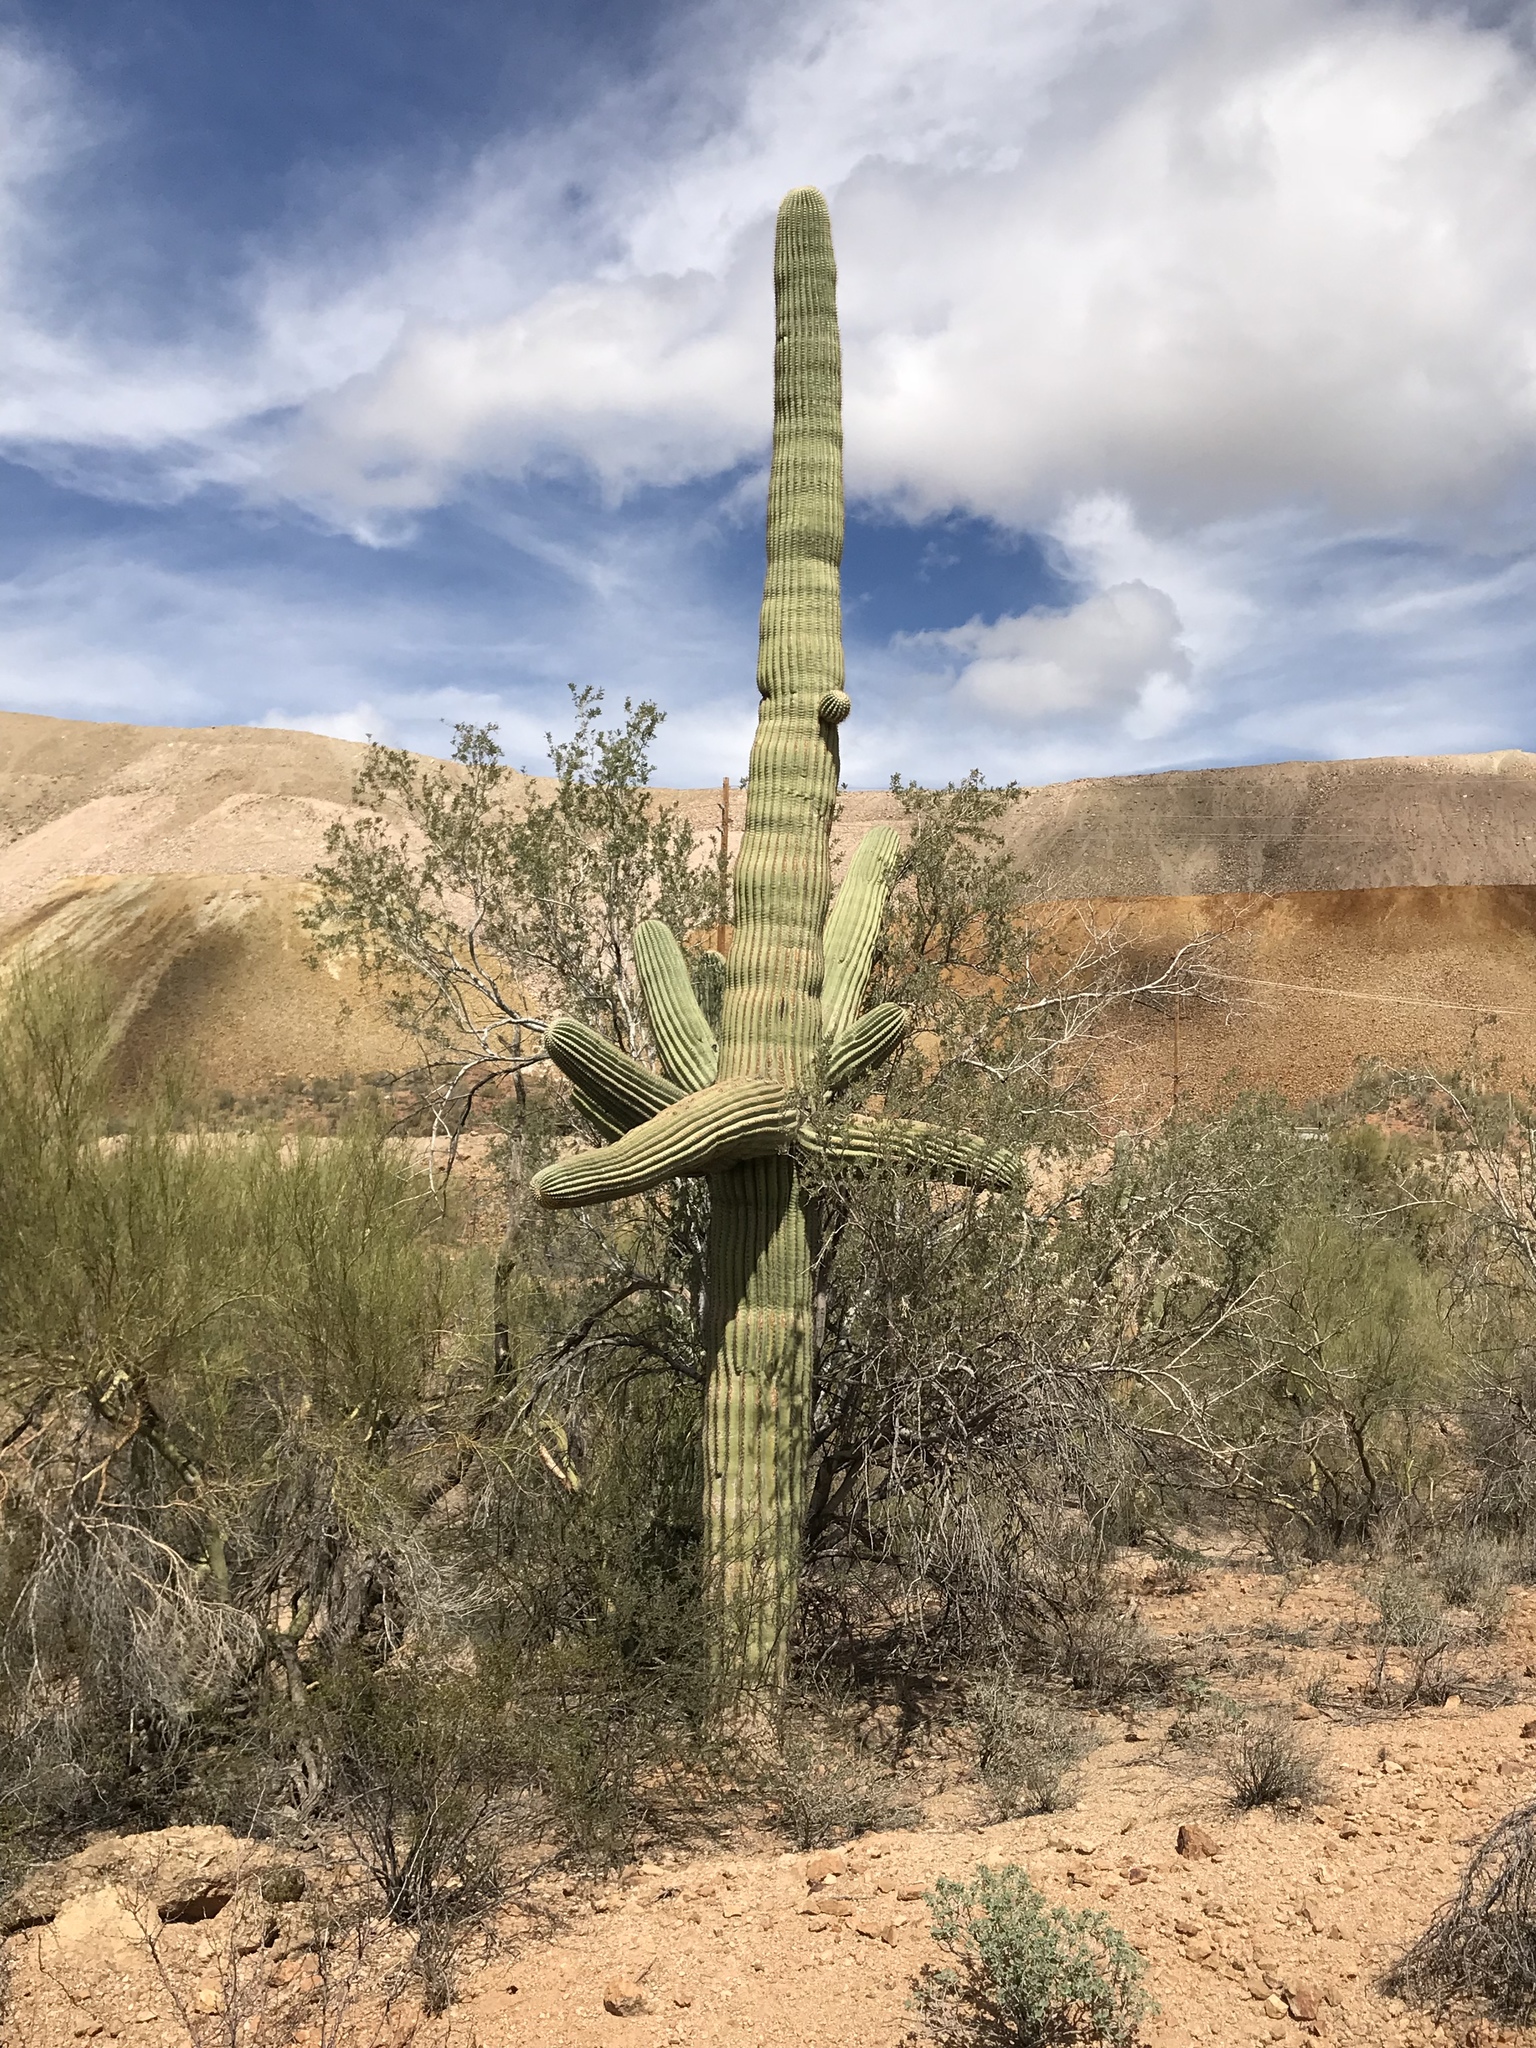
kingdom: Plantae
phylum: Tracheophyta
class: Magnoliopsida
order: Caryophyllales
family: Cactaceae
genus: Carnegiea
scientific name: Carnegiea gigantea
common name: Saguaro
